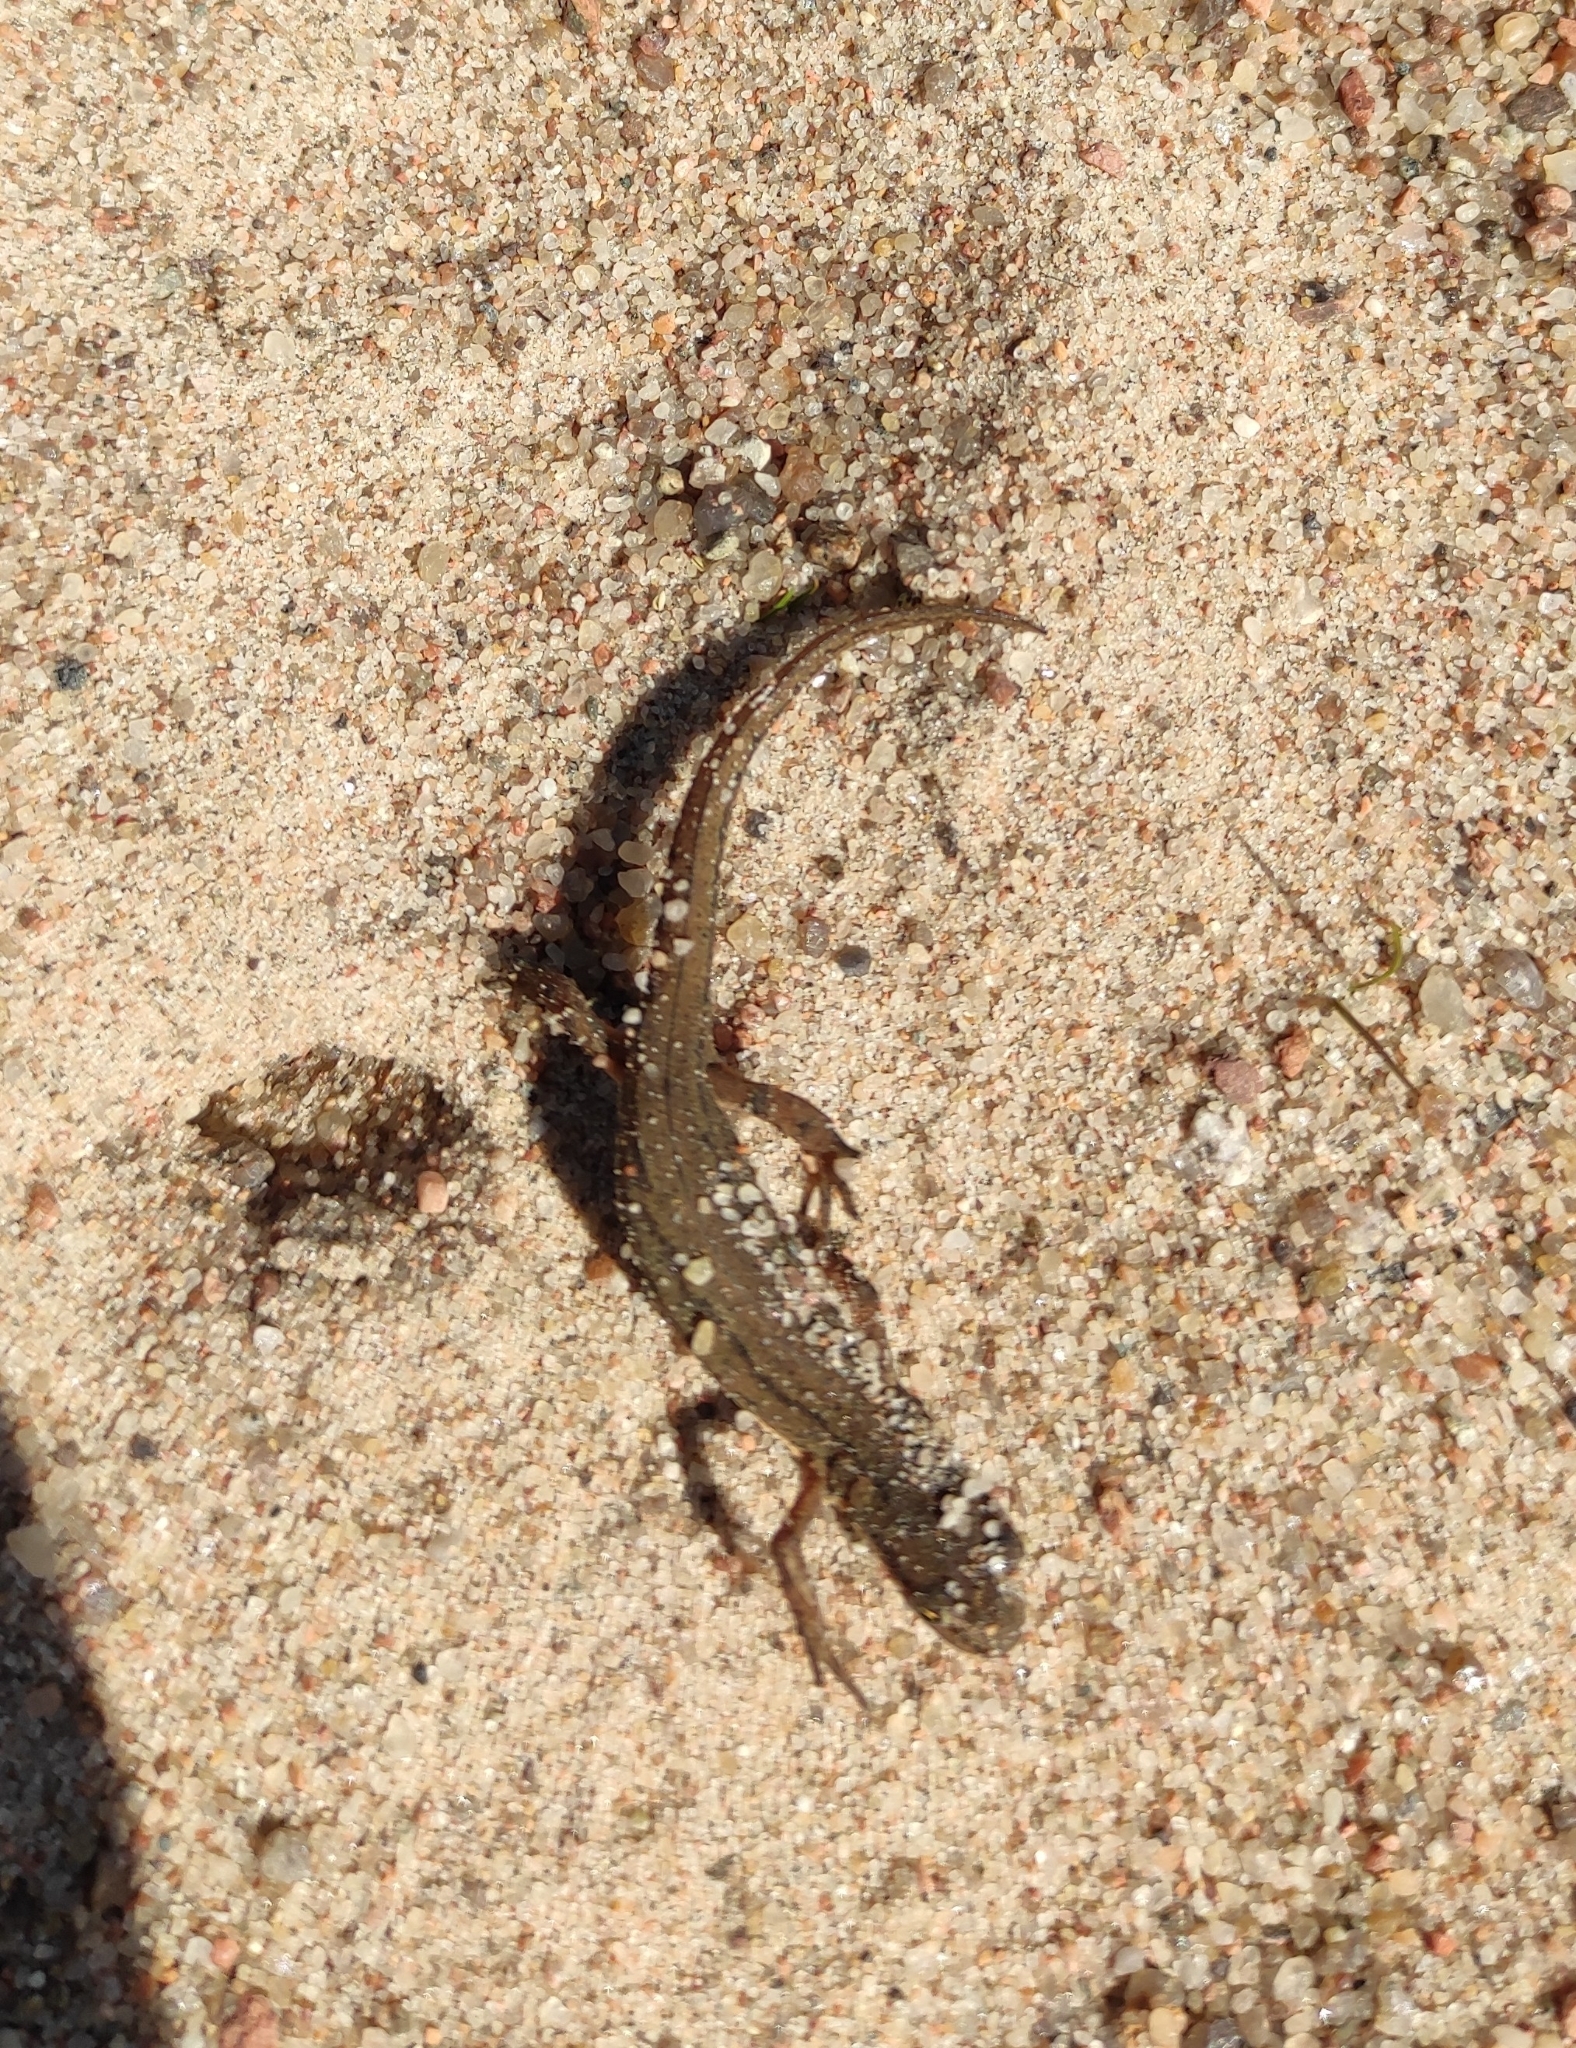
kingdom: Animalia
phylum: Chordata
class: Amphibia
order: Caudata
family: Salamandridae
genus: Lissotriton
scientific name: Lissotriton vulgaris
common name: Smooth newt
